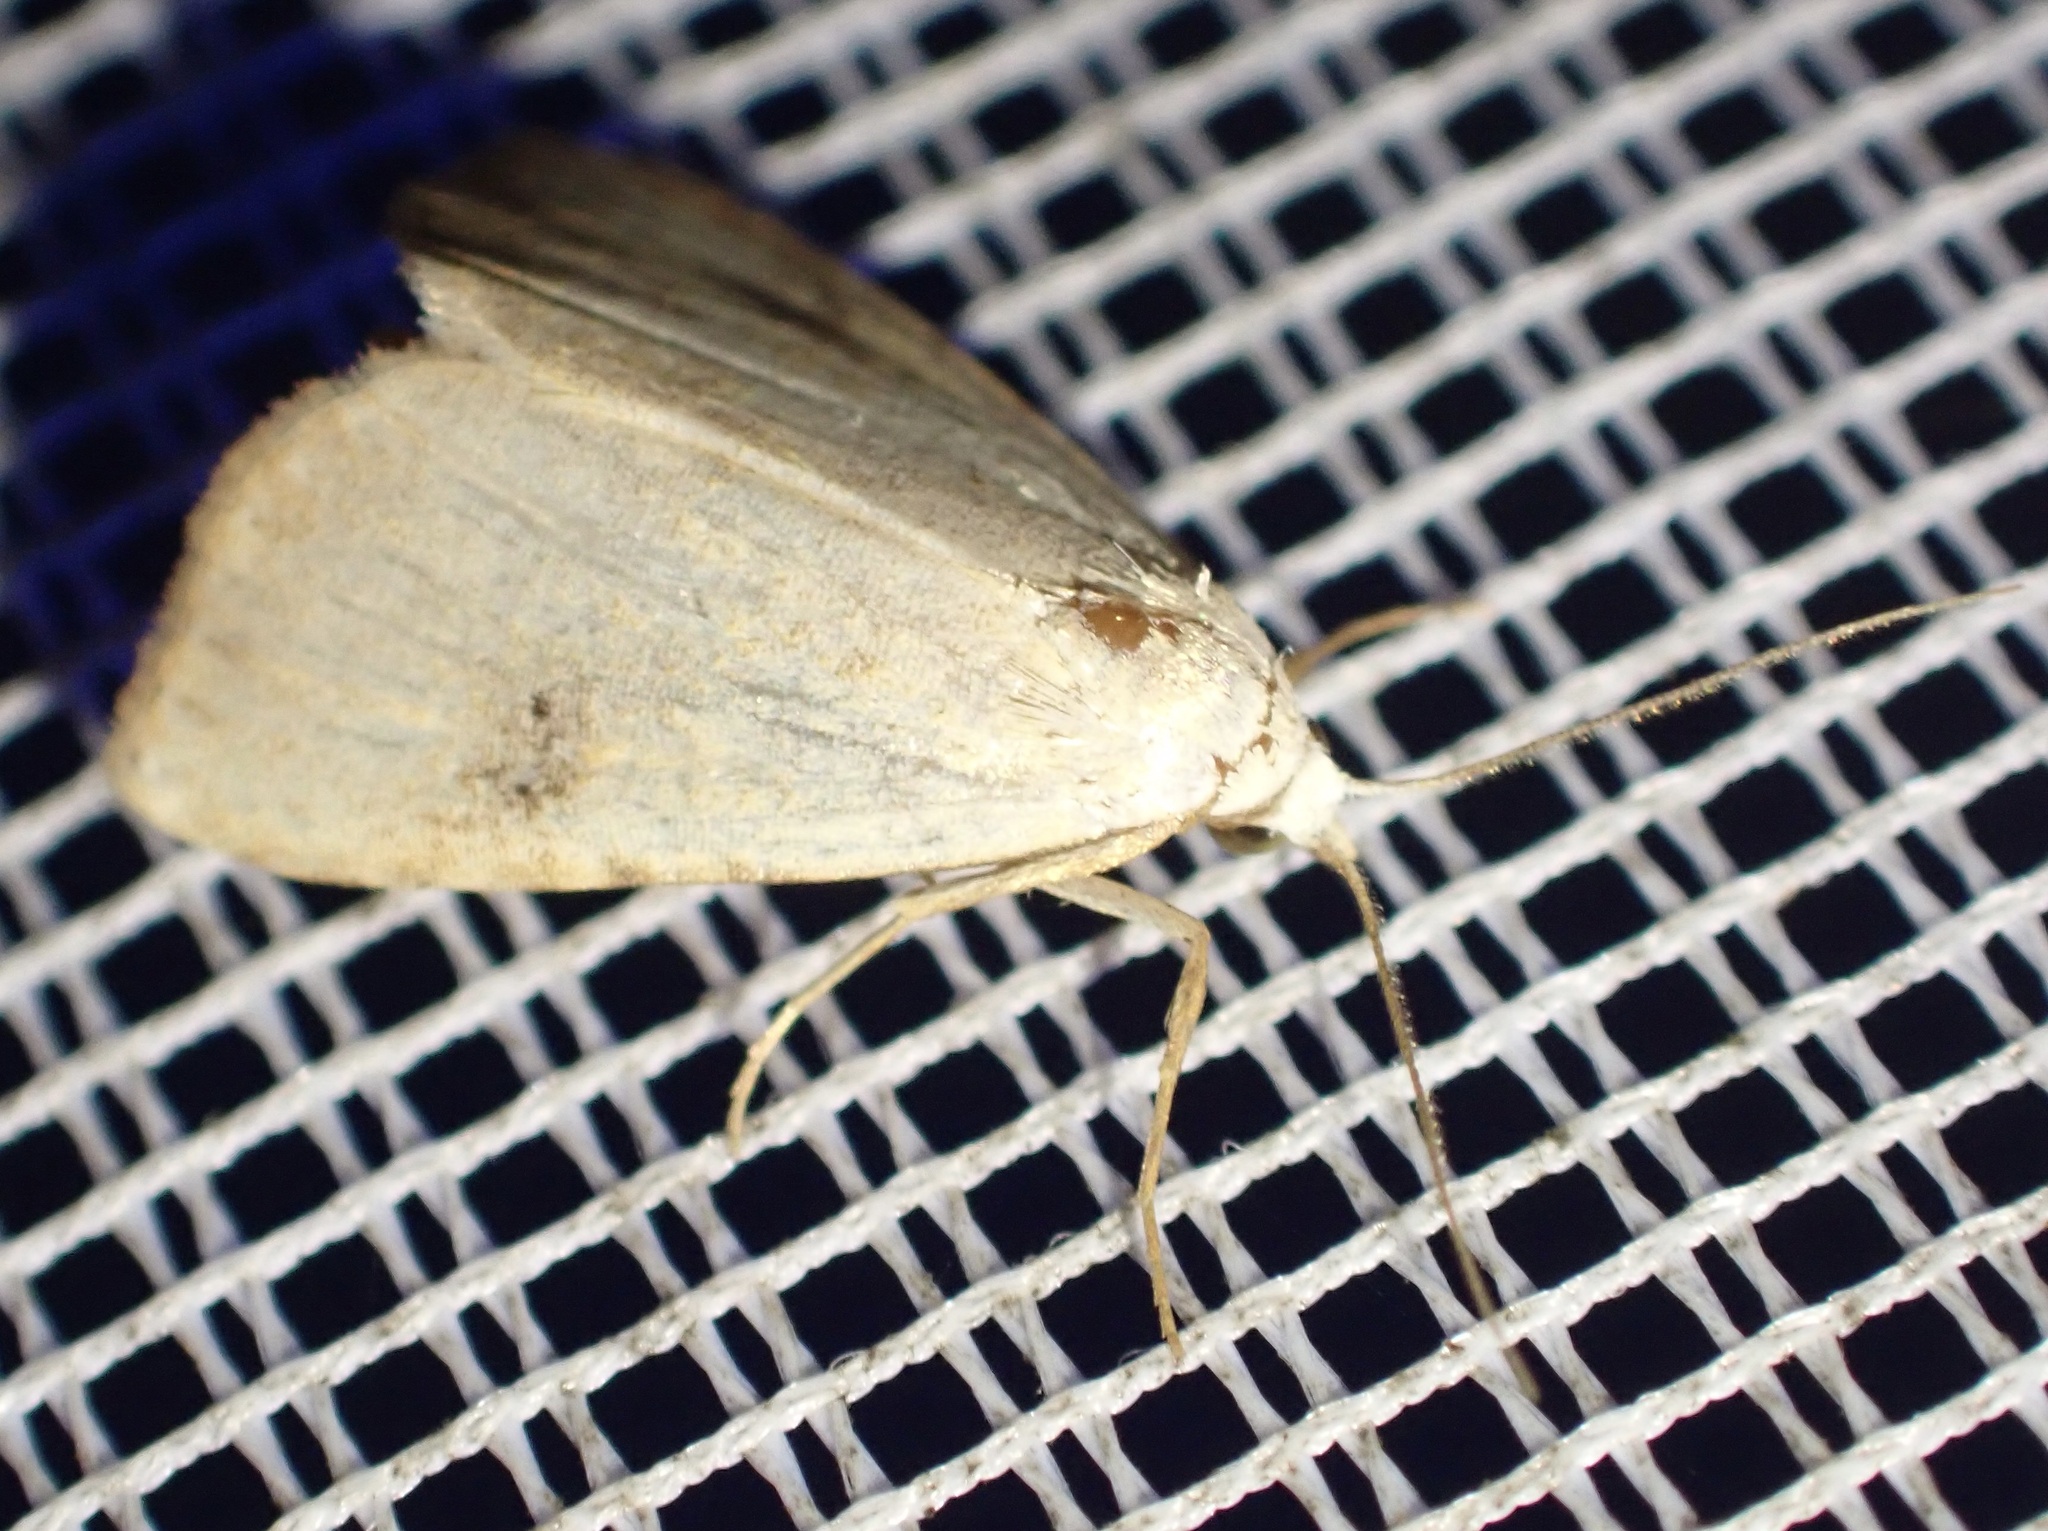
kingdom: Animalia
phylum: Arthropoda
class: Insecta
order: Lepidoptera
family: Erebidae
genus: Rivula
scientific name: Rivula sericealis
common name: Straw dot
